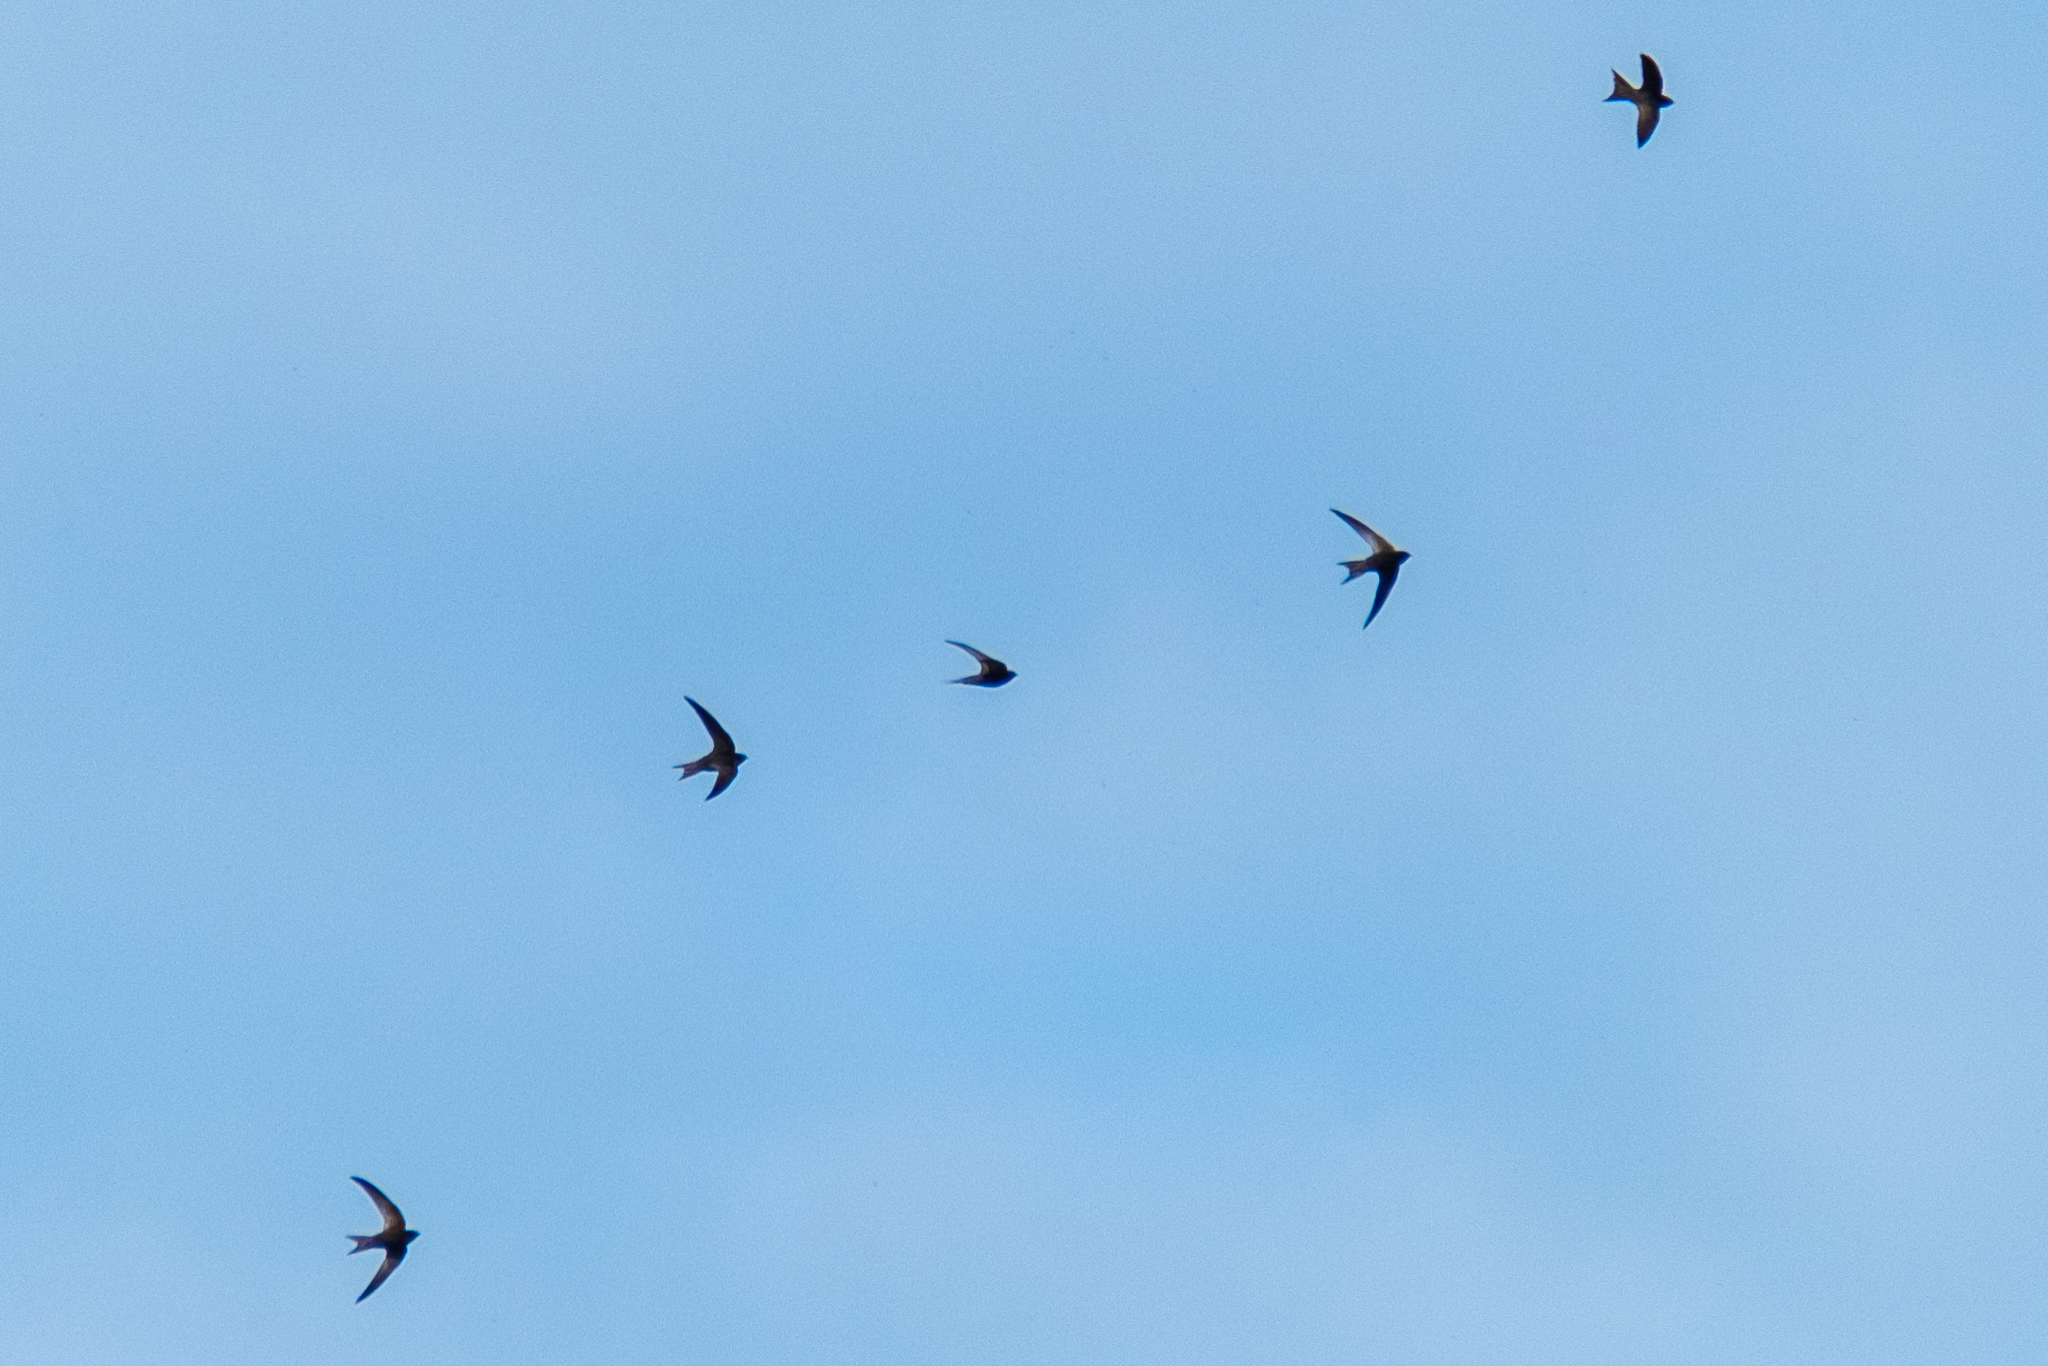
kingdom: Animalia
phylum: Chordata
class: Aves
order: Apodiformes
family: Apodidae
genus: Apus
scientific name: Apus apus
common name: Common swift
